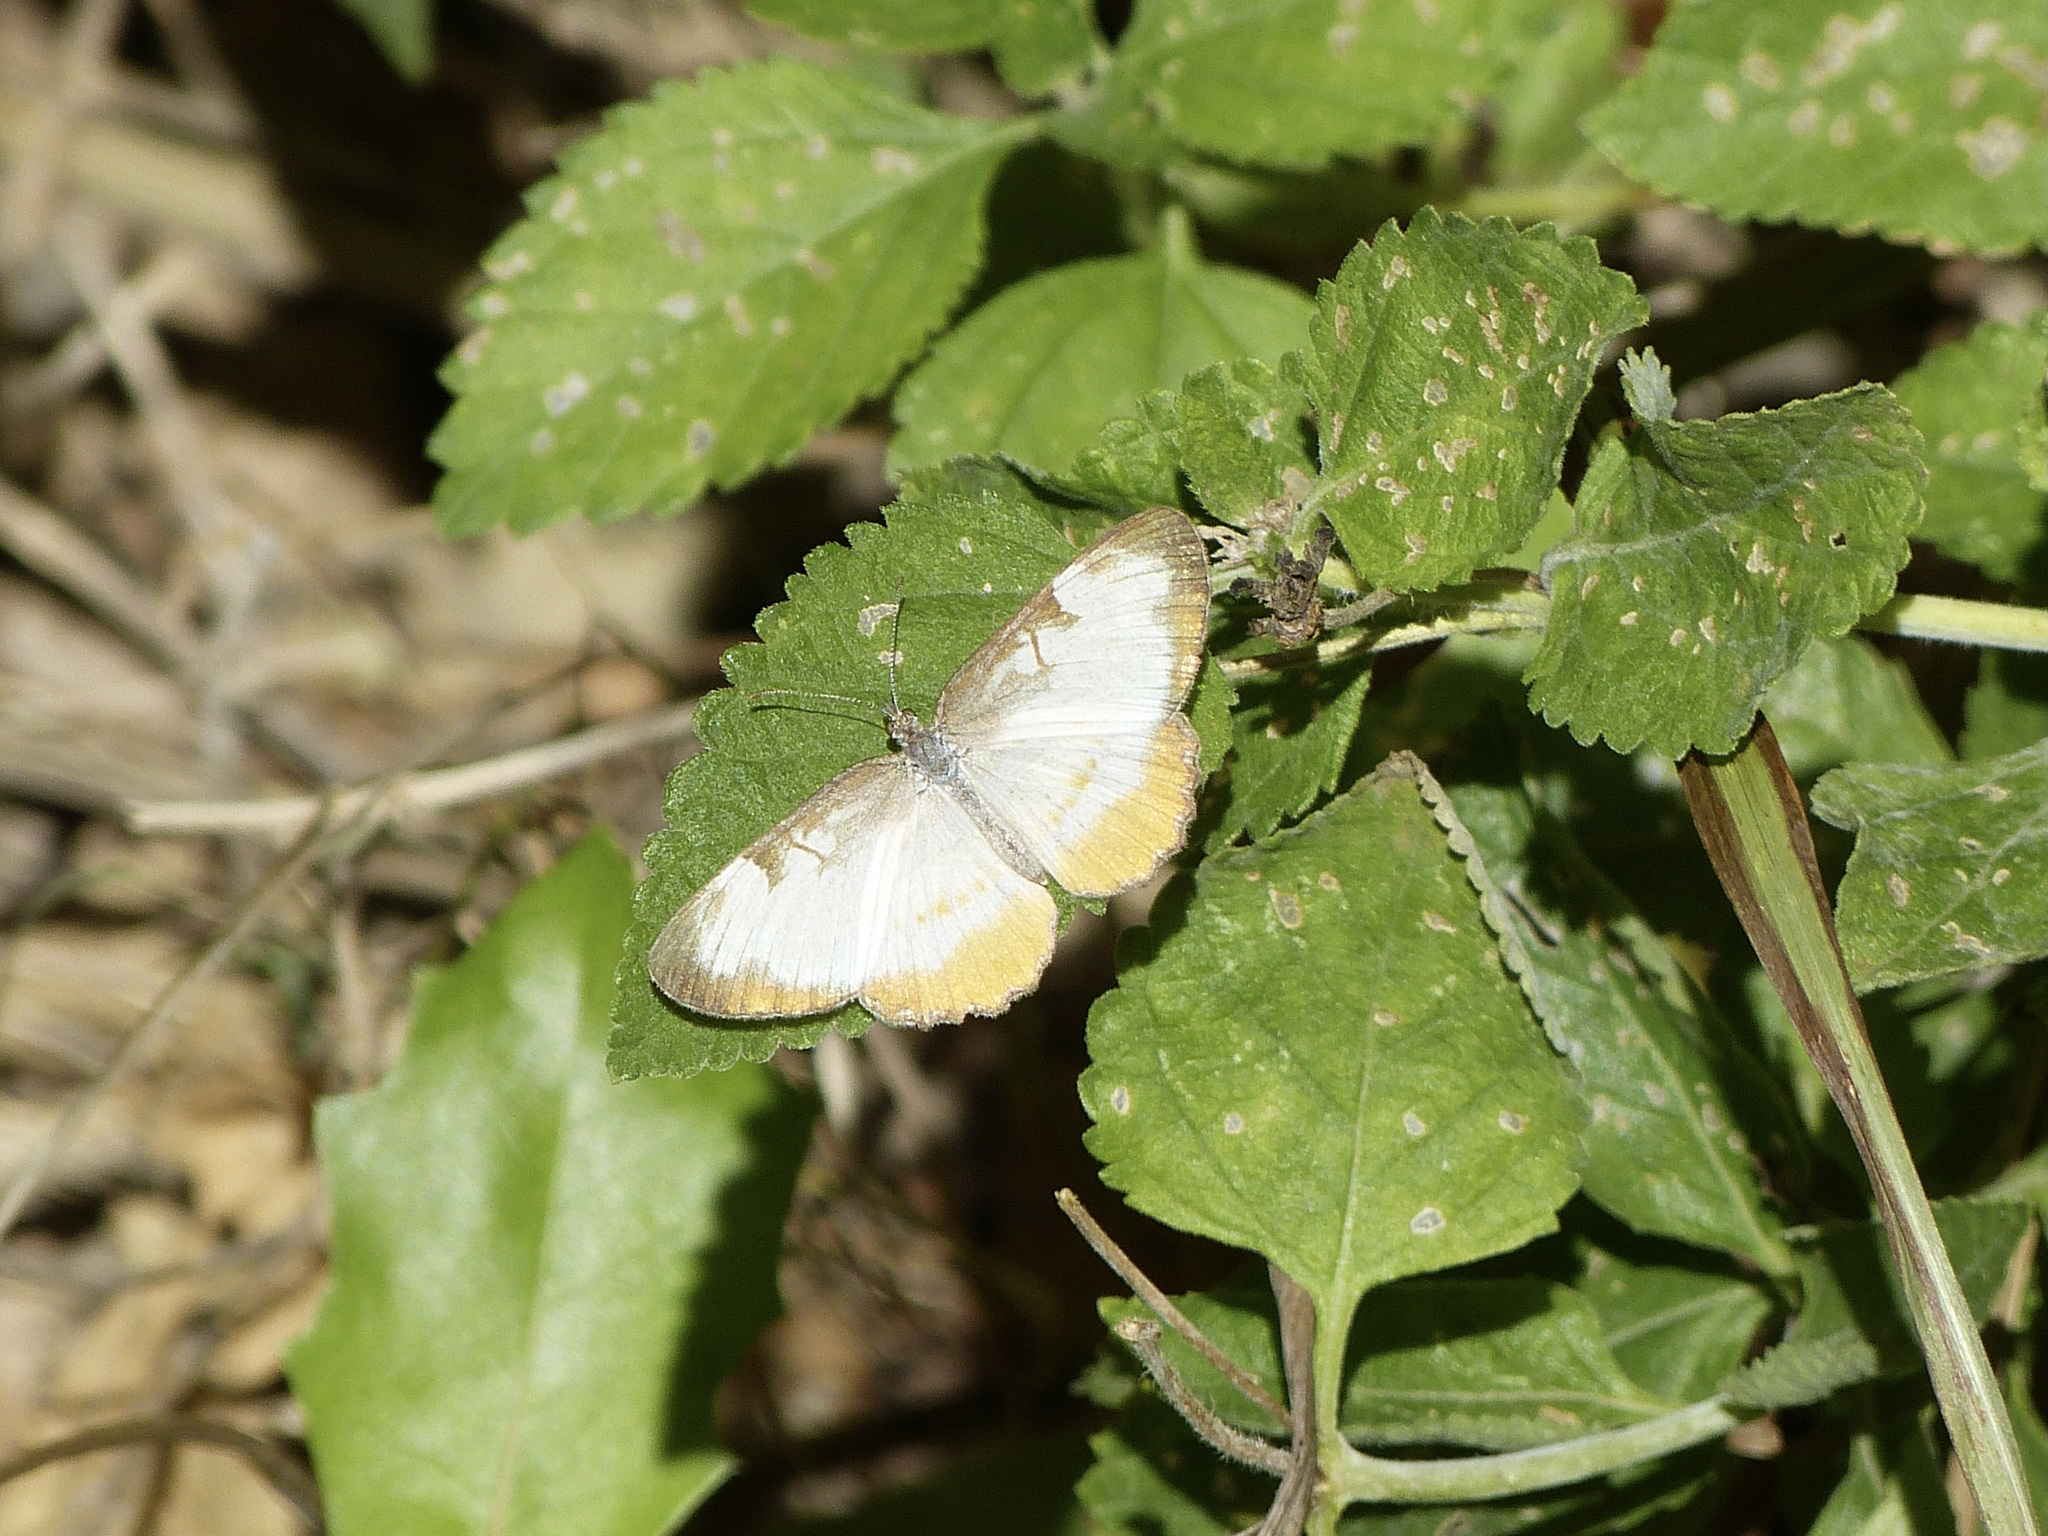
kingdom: Animalia
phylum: Arthropoda
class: Insecta
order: Lepidoptera
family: Nymphalidae
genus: Mestra
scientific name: Mestra amymone
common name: Common mestra
